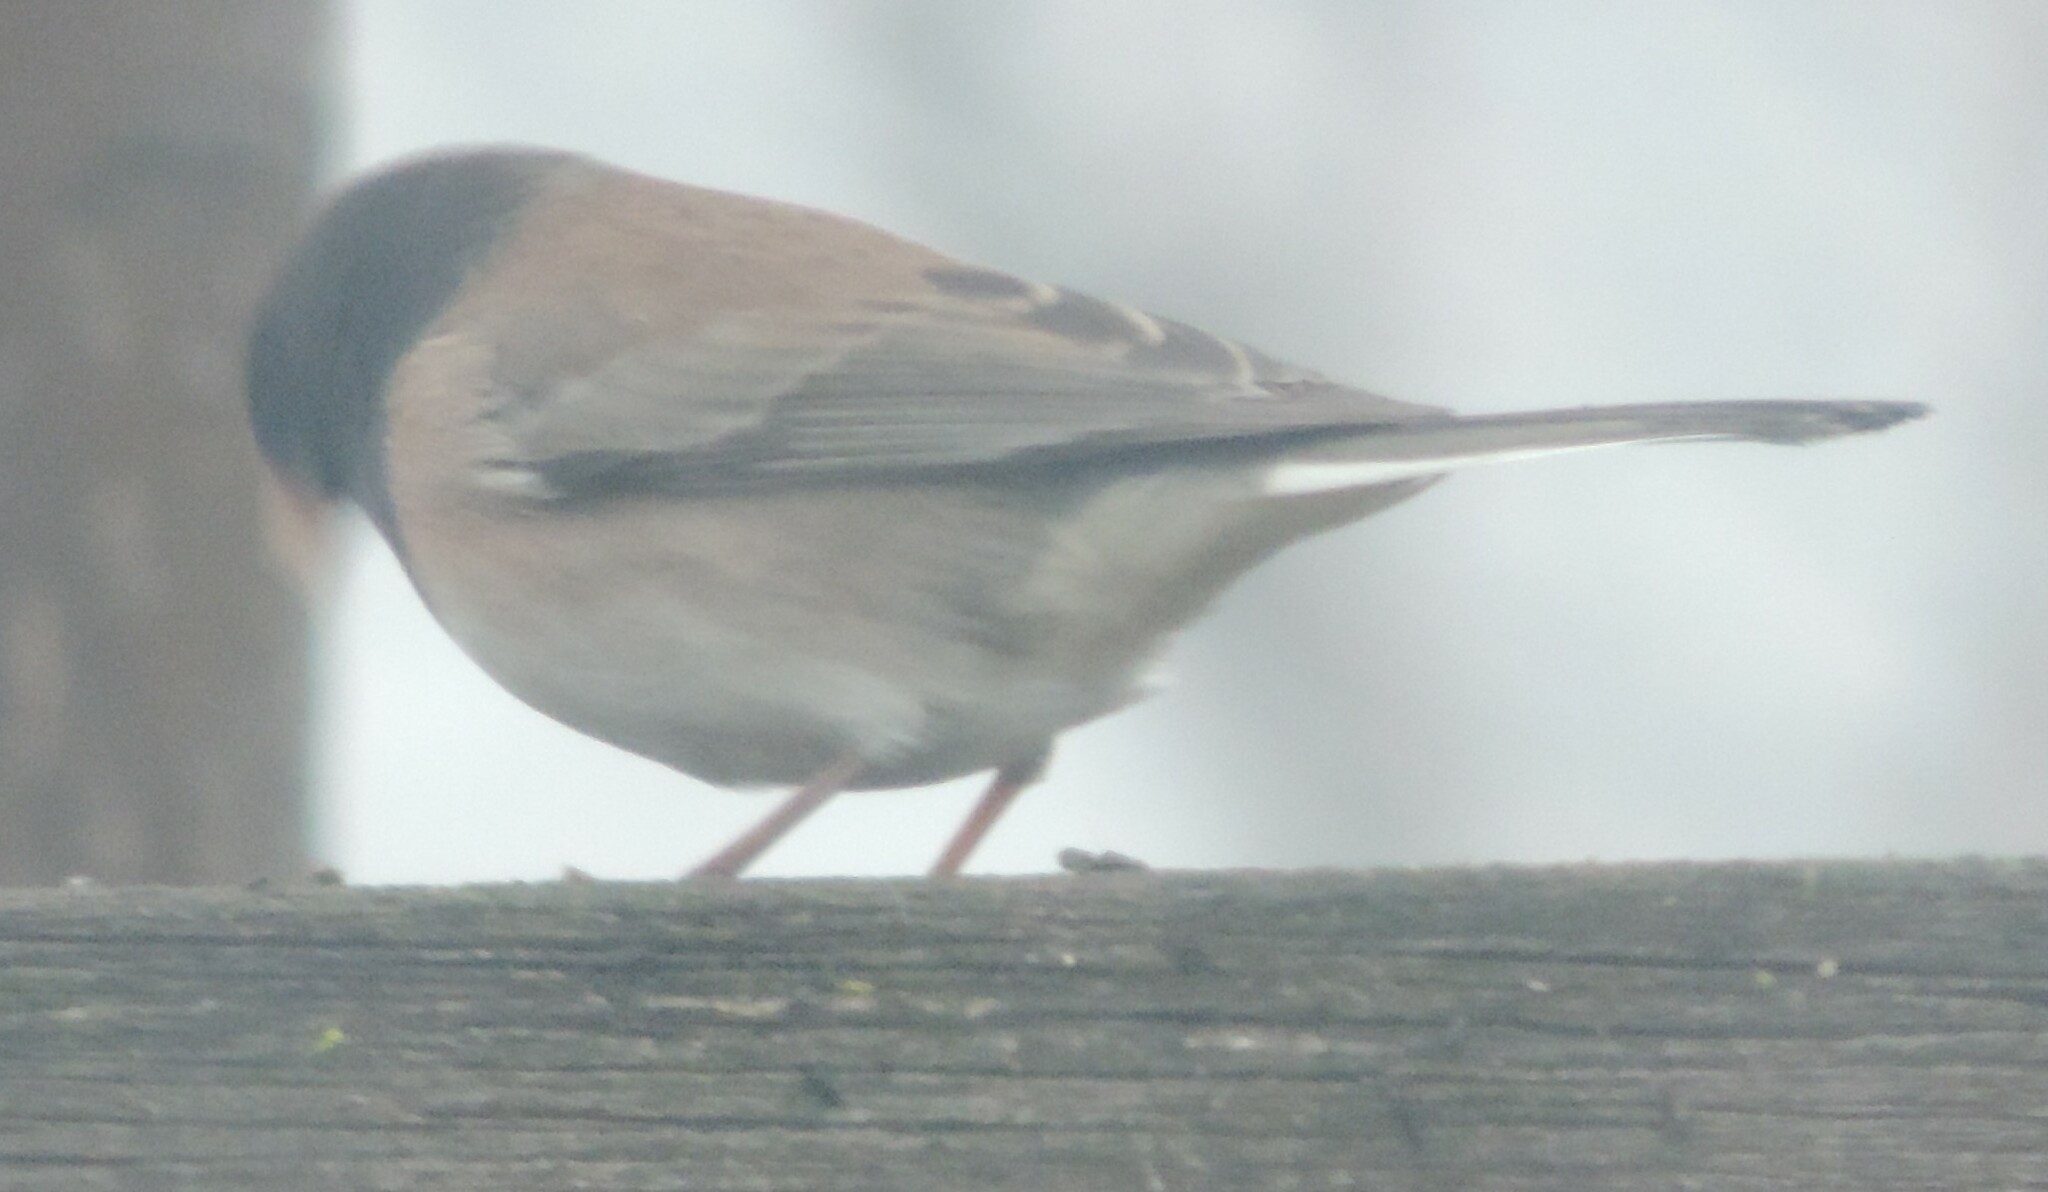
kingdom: Animalia
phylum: Chordata
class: Aves
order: Passeriformes
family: Passerellidae
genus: Junco
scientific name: Junco hyemalis
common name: Dark-eyed junco
